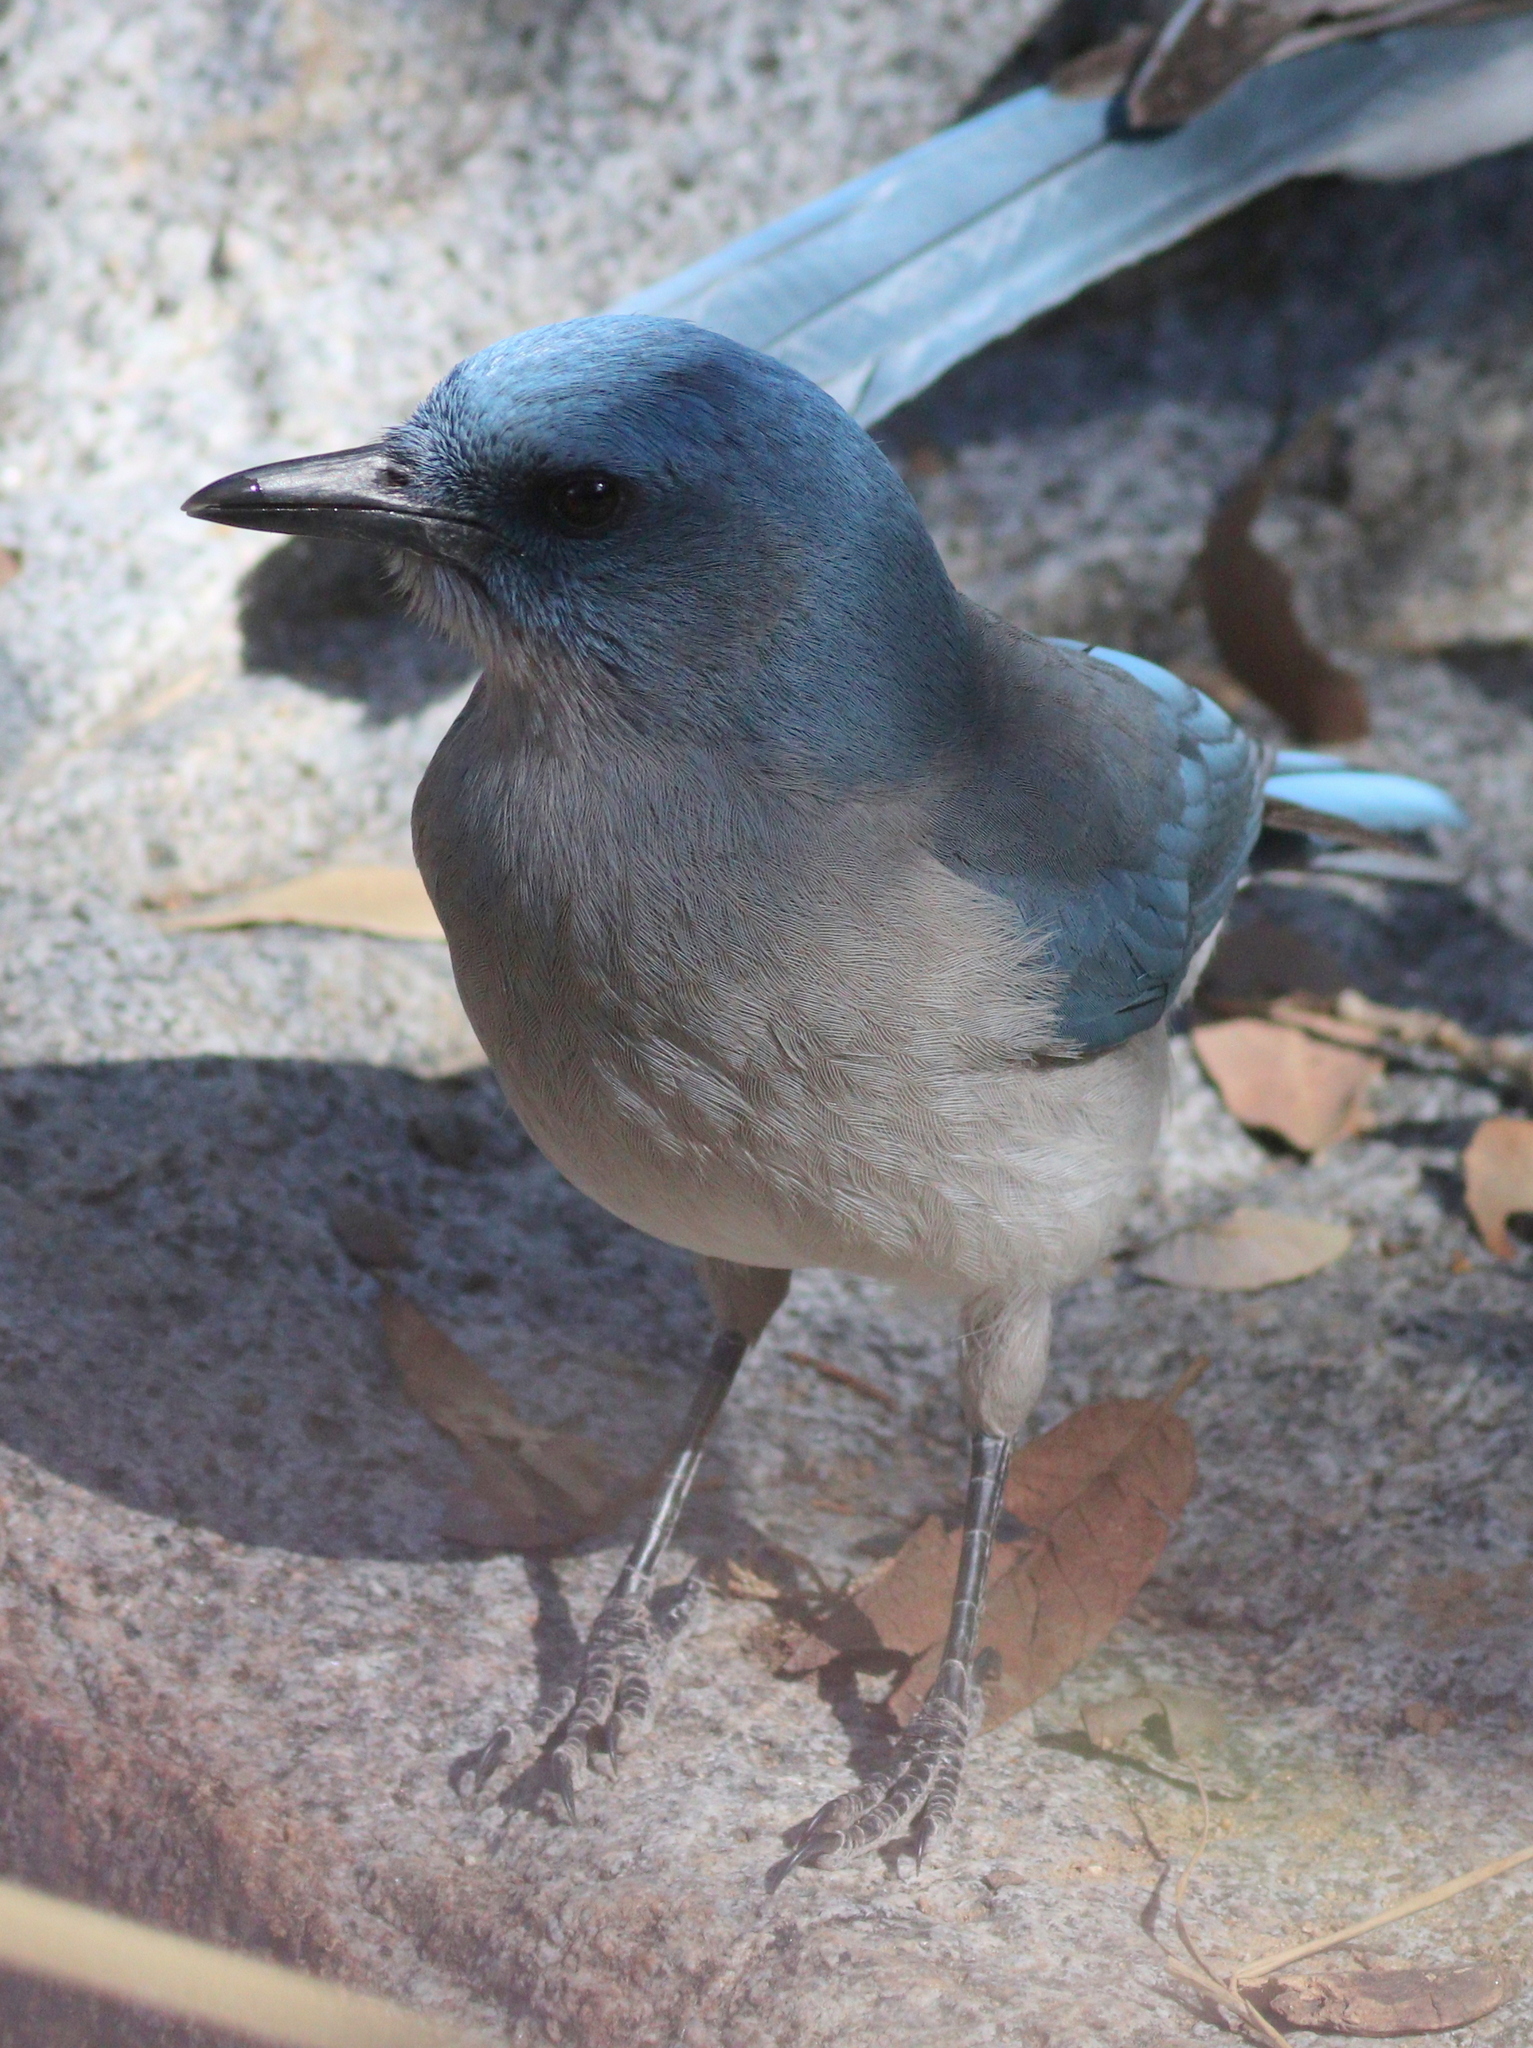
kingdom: Animalia
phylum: Chordata
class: Aves
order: Passeriformes
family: Corvidae
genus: Aphelocoma
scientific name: Aphelocoma wollweberi
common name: Mexican jay
